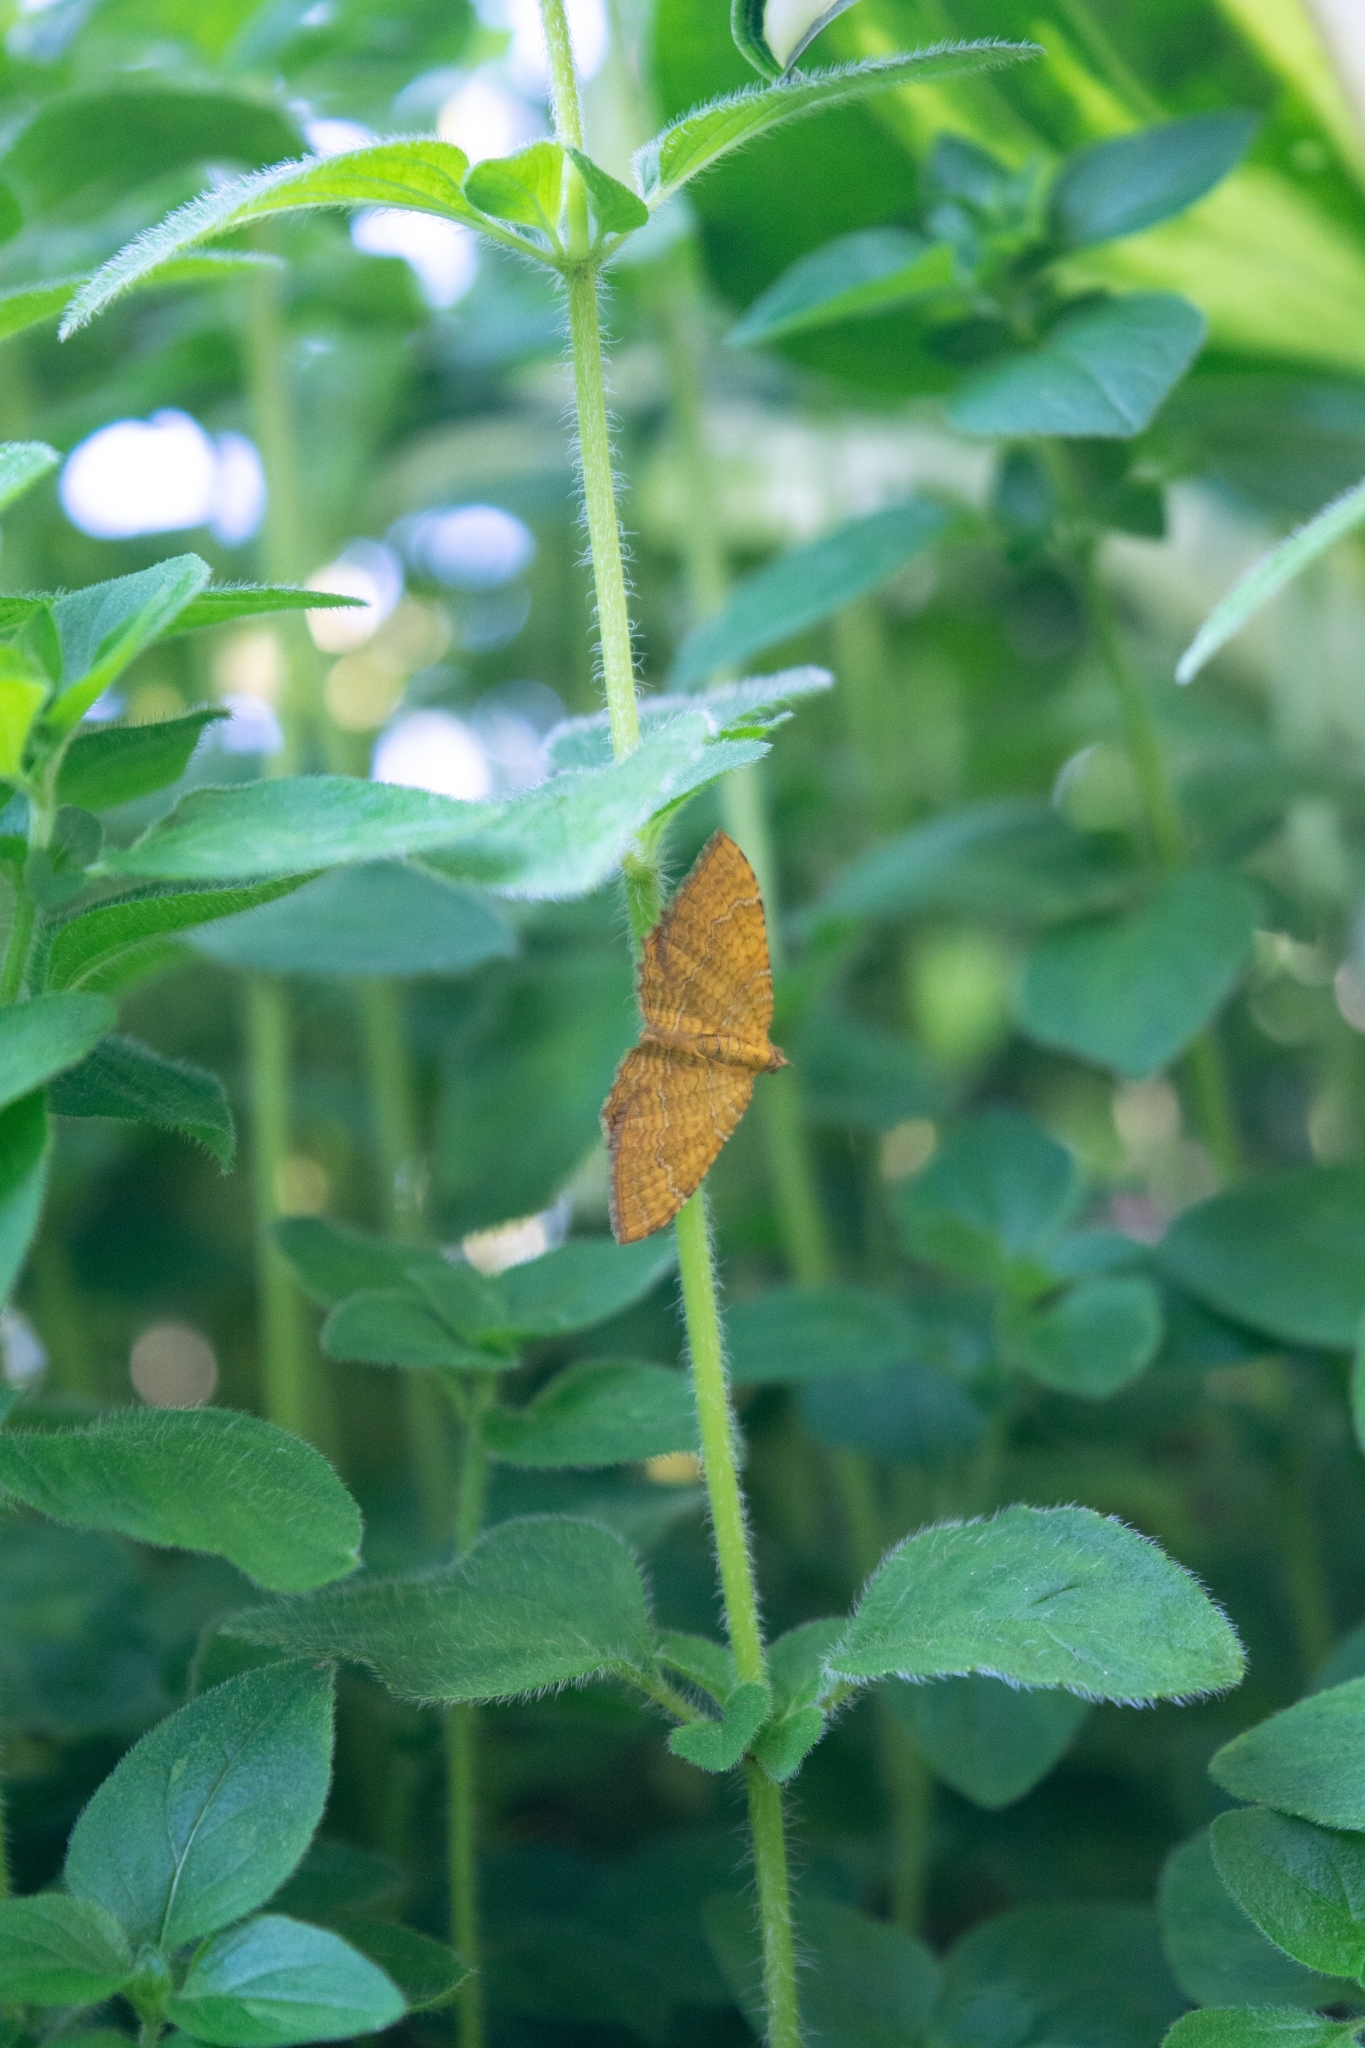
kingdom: Animalia
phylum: Arthropoda
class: Insecta
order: Lepidoptera
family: Geometridae
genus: Camptogramma
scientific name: Camptogramma bilineata
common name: Yellow shell
